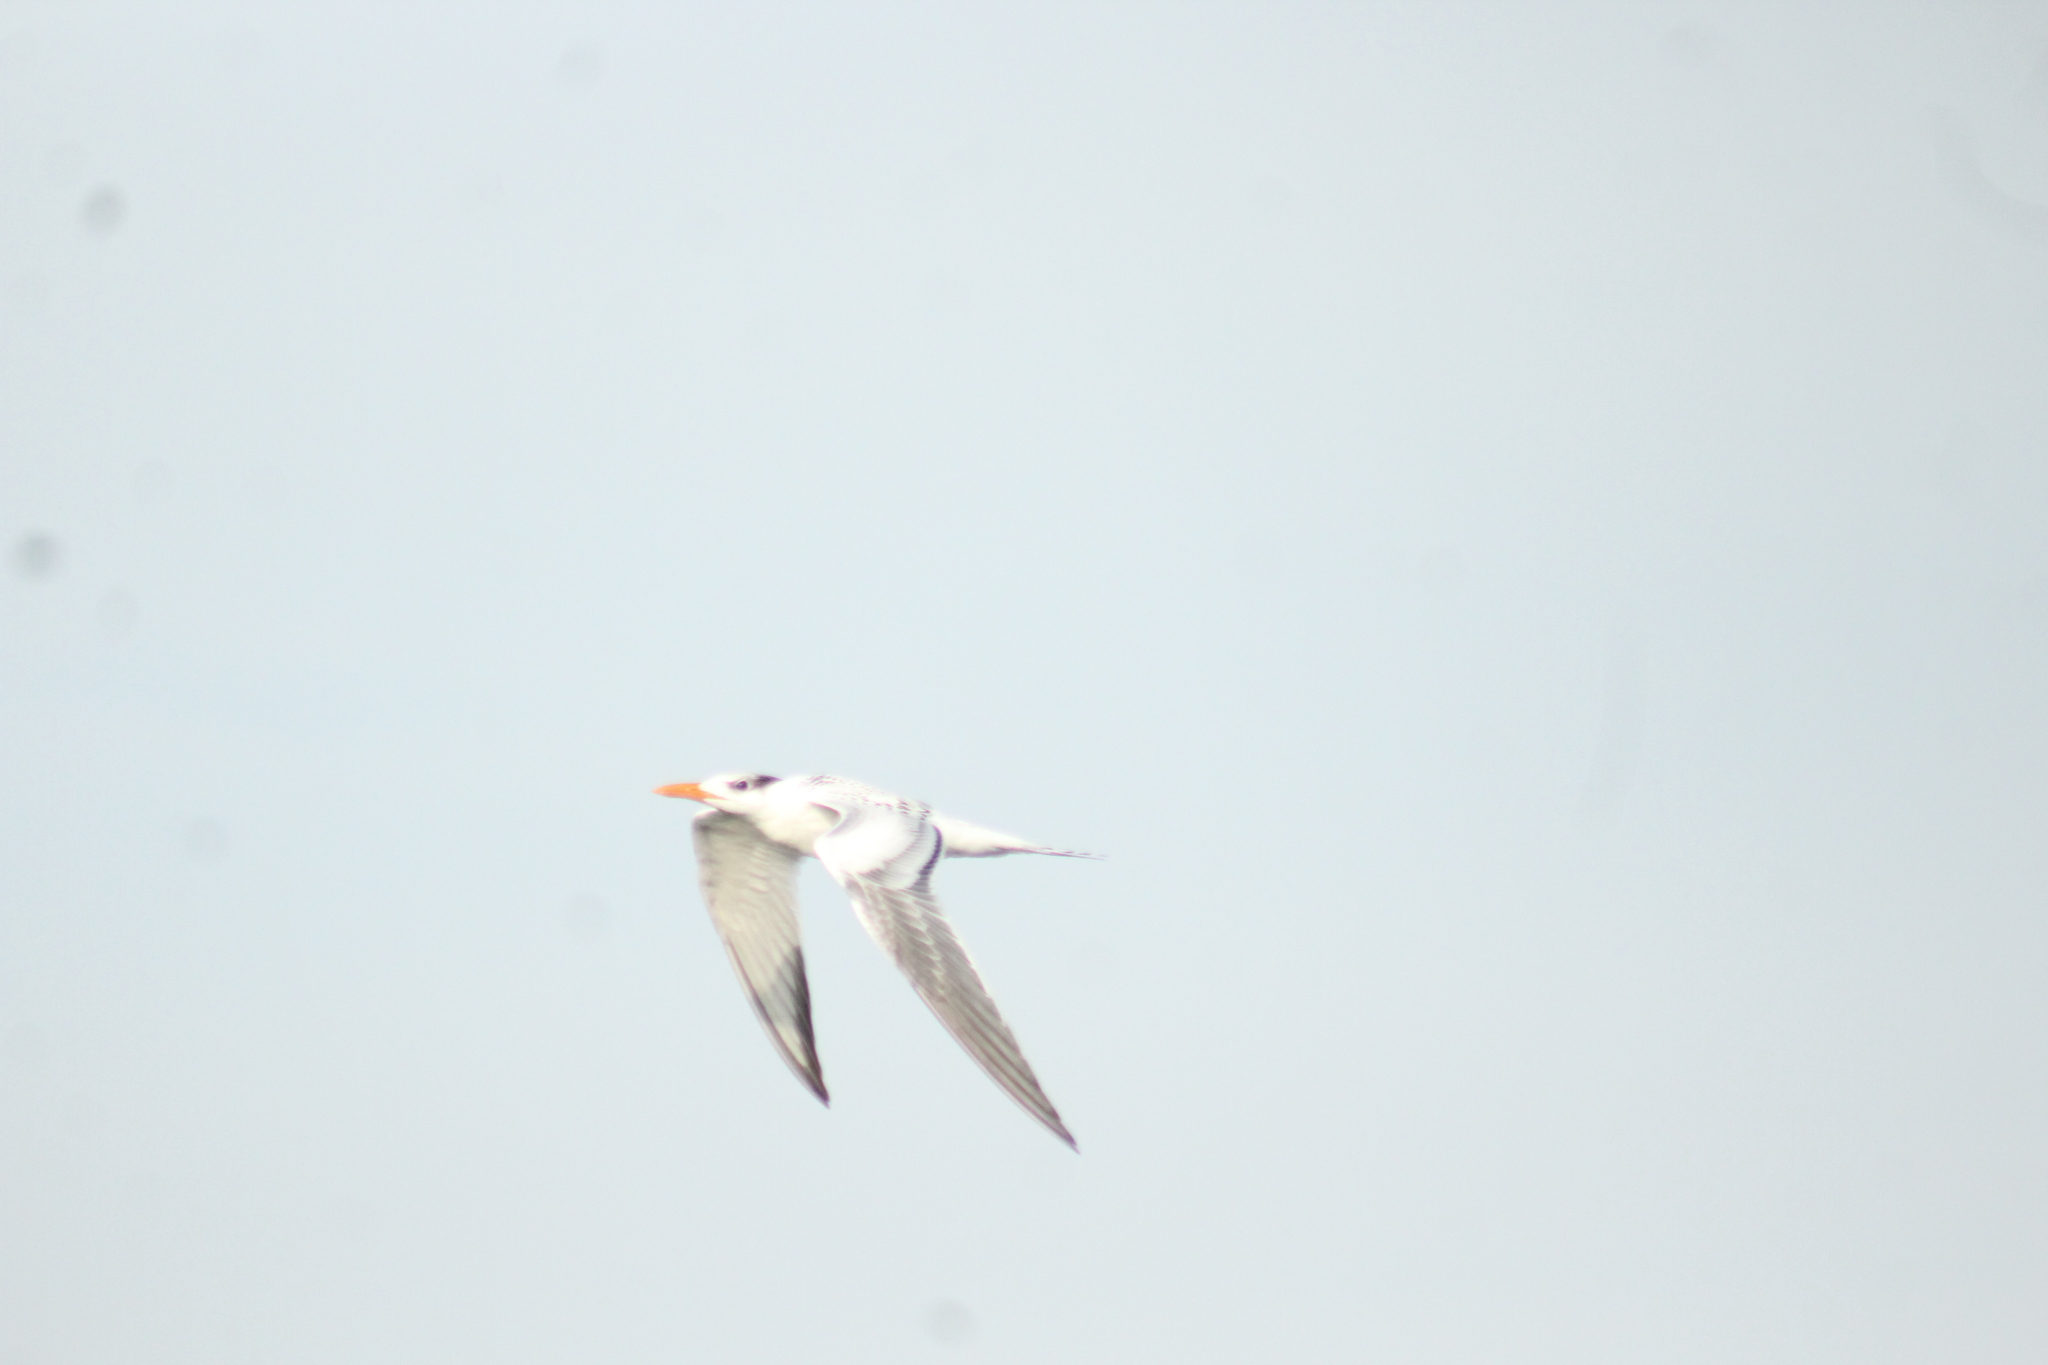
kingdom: Animalia
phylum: Chordata
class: Aves
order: Charadriiformes
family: Laridae
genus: Thalasseus
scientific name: Thalasseus maximus
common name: Royal tern
